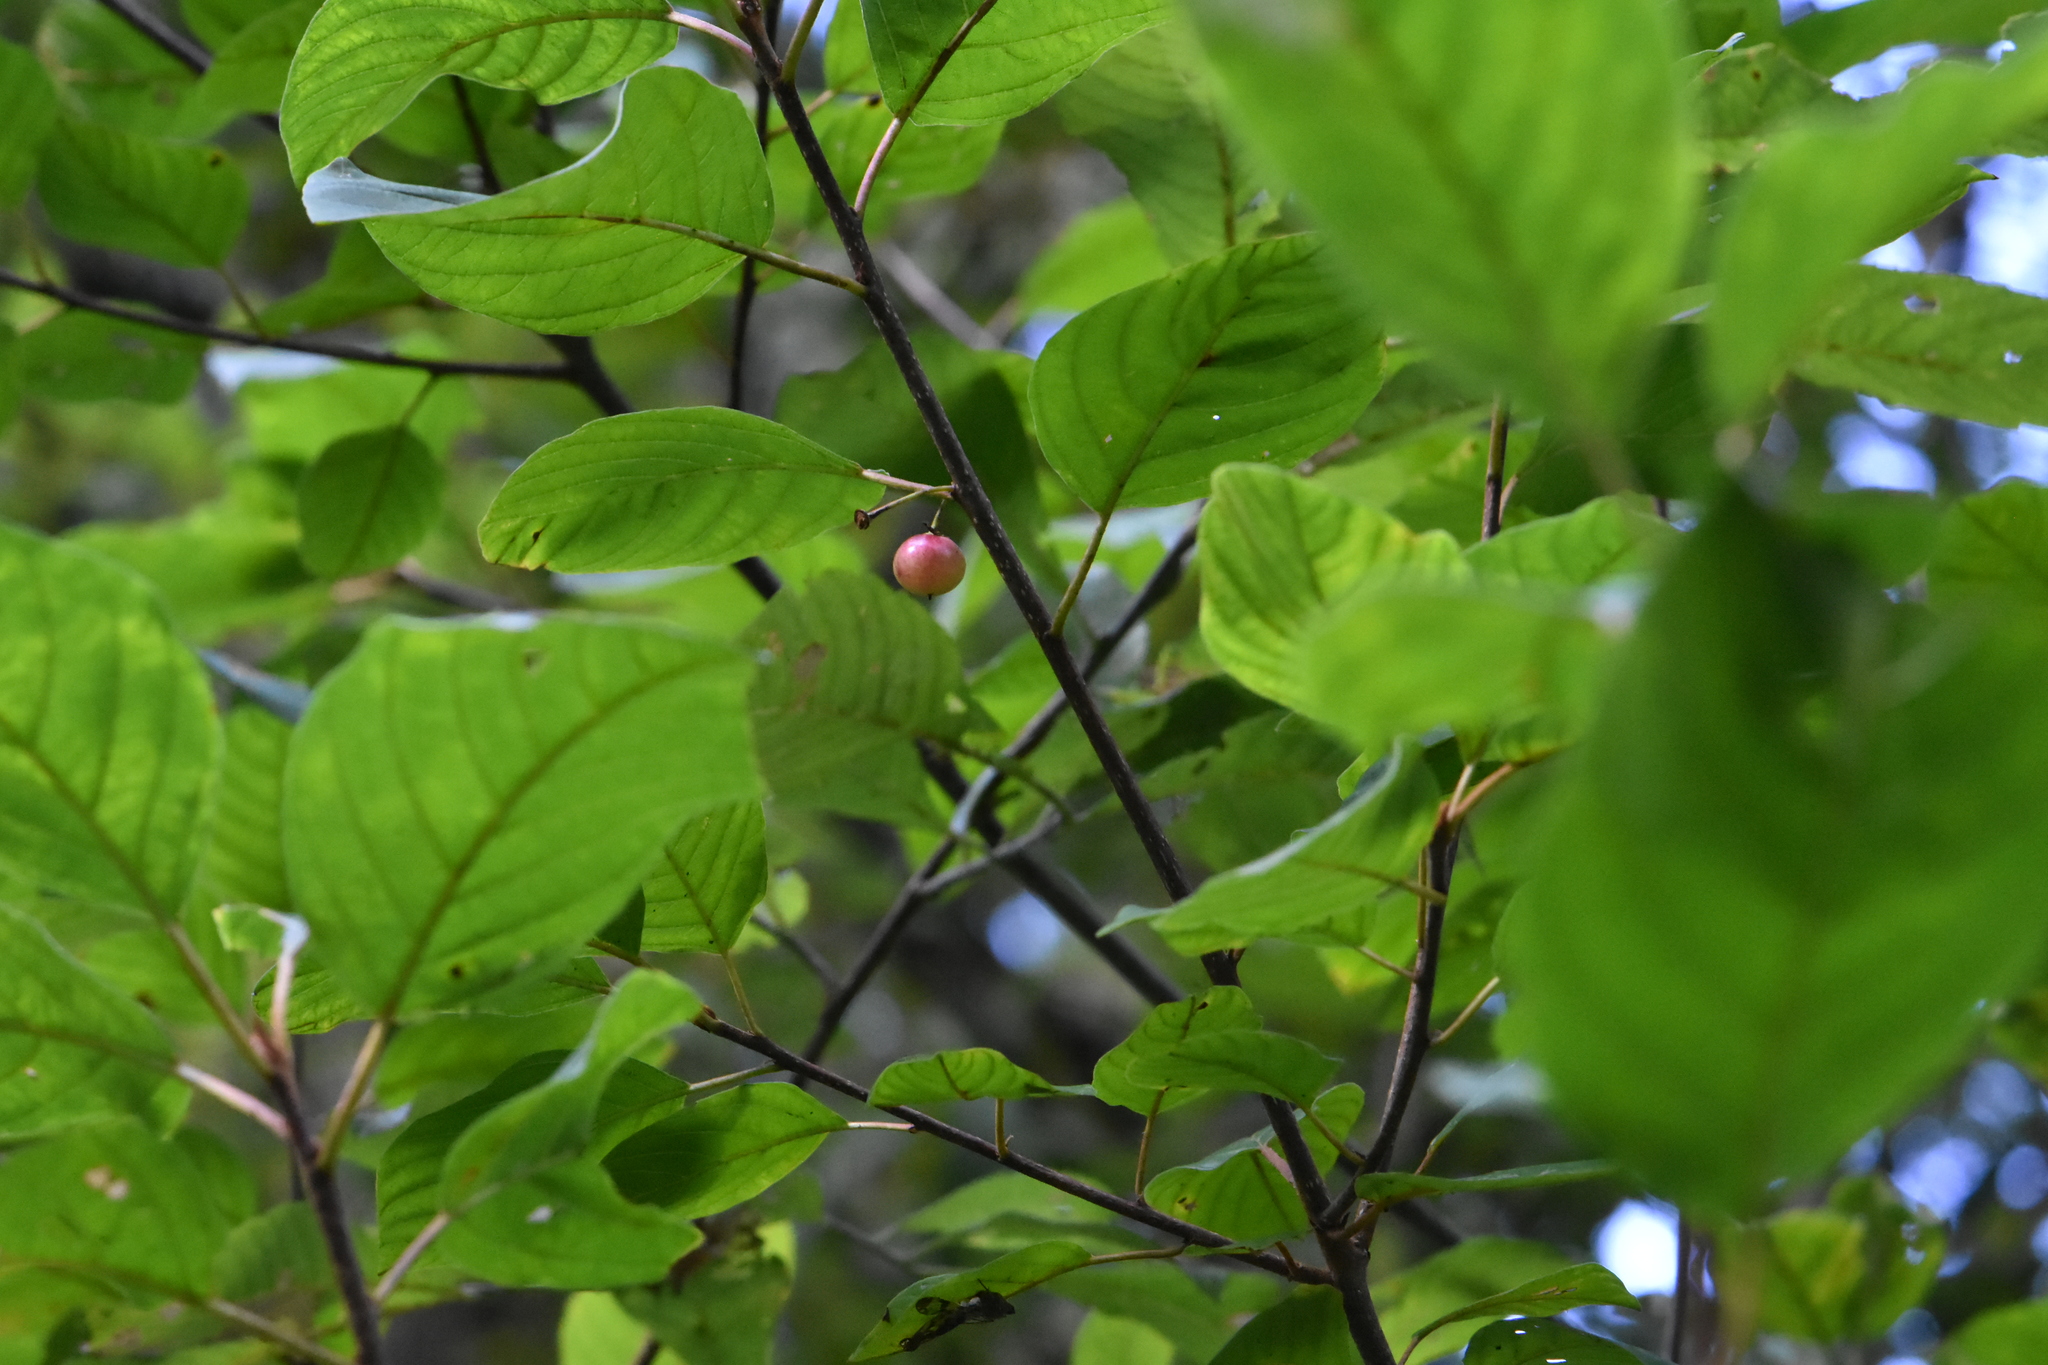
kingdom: Plantae
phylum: Tracheophyta
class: Magnoliopsida
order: Rosales
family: Rhamnaceae
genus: Frangula
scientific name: Frangula alnus
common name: Alder buckthorn
